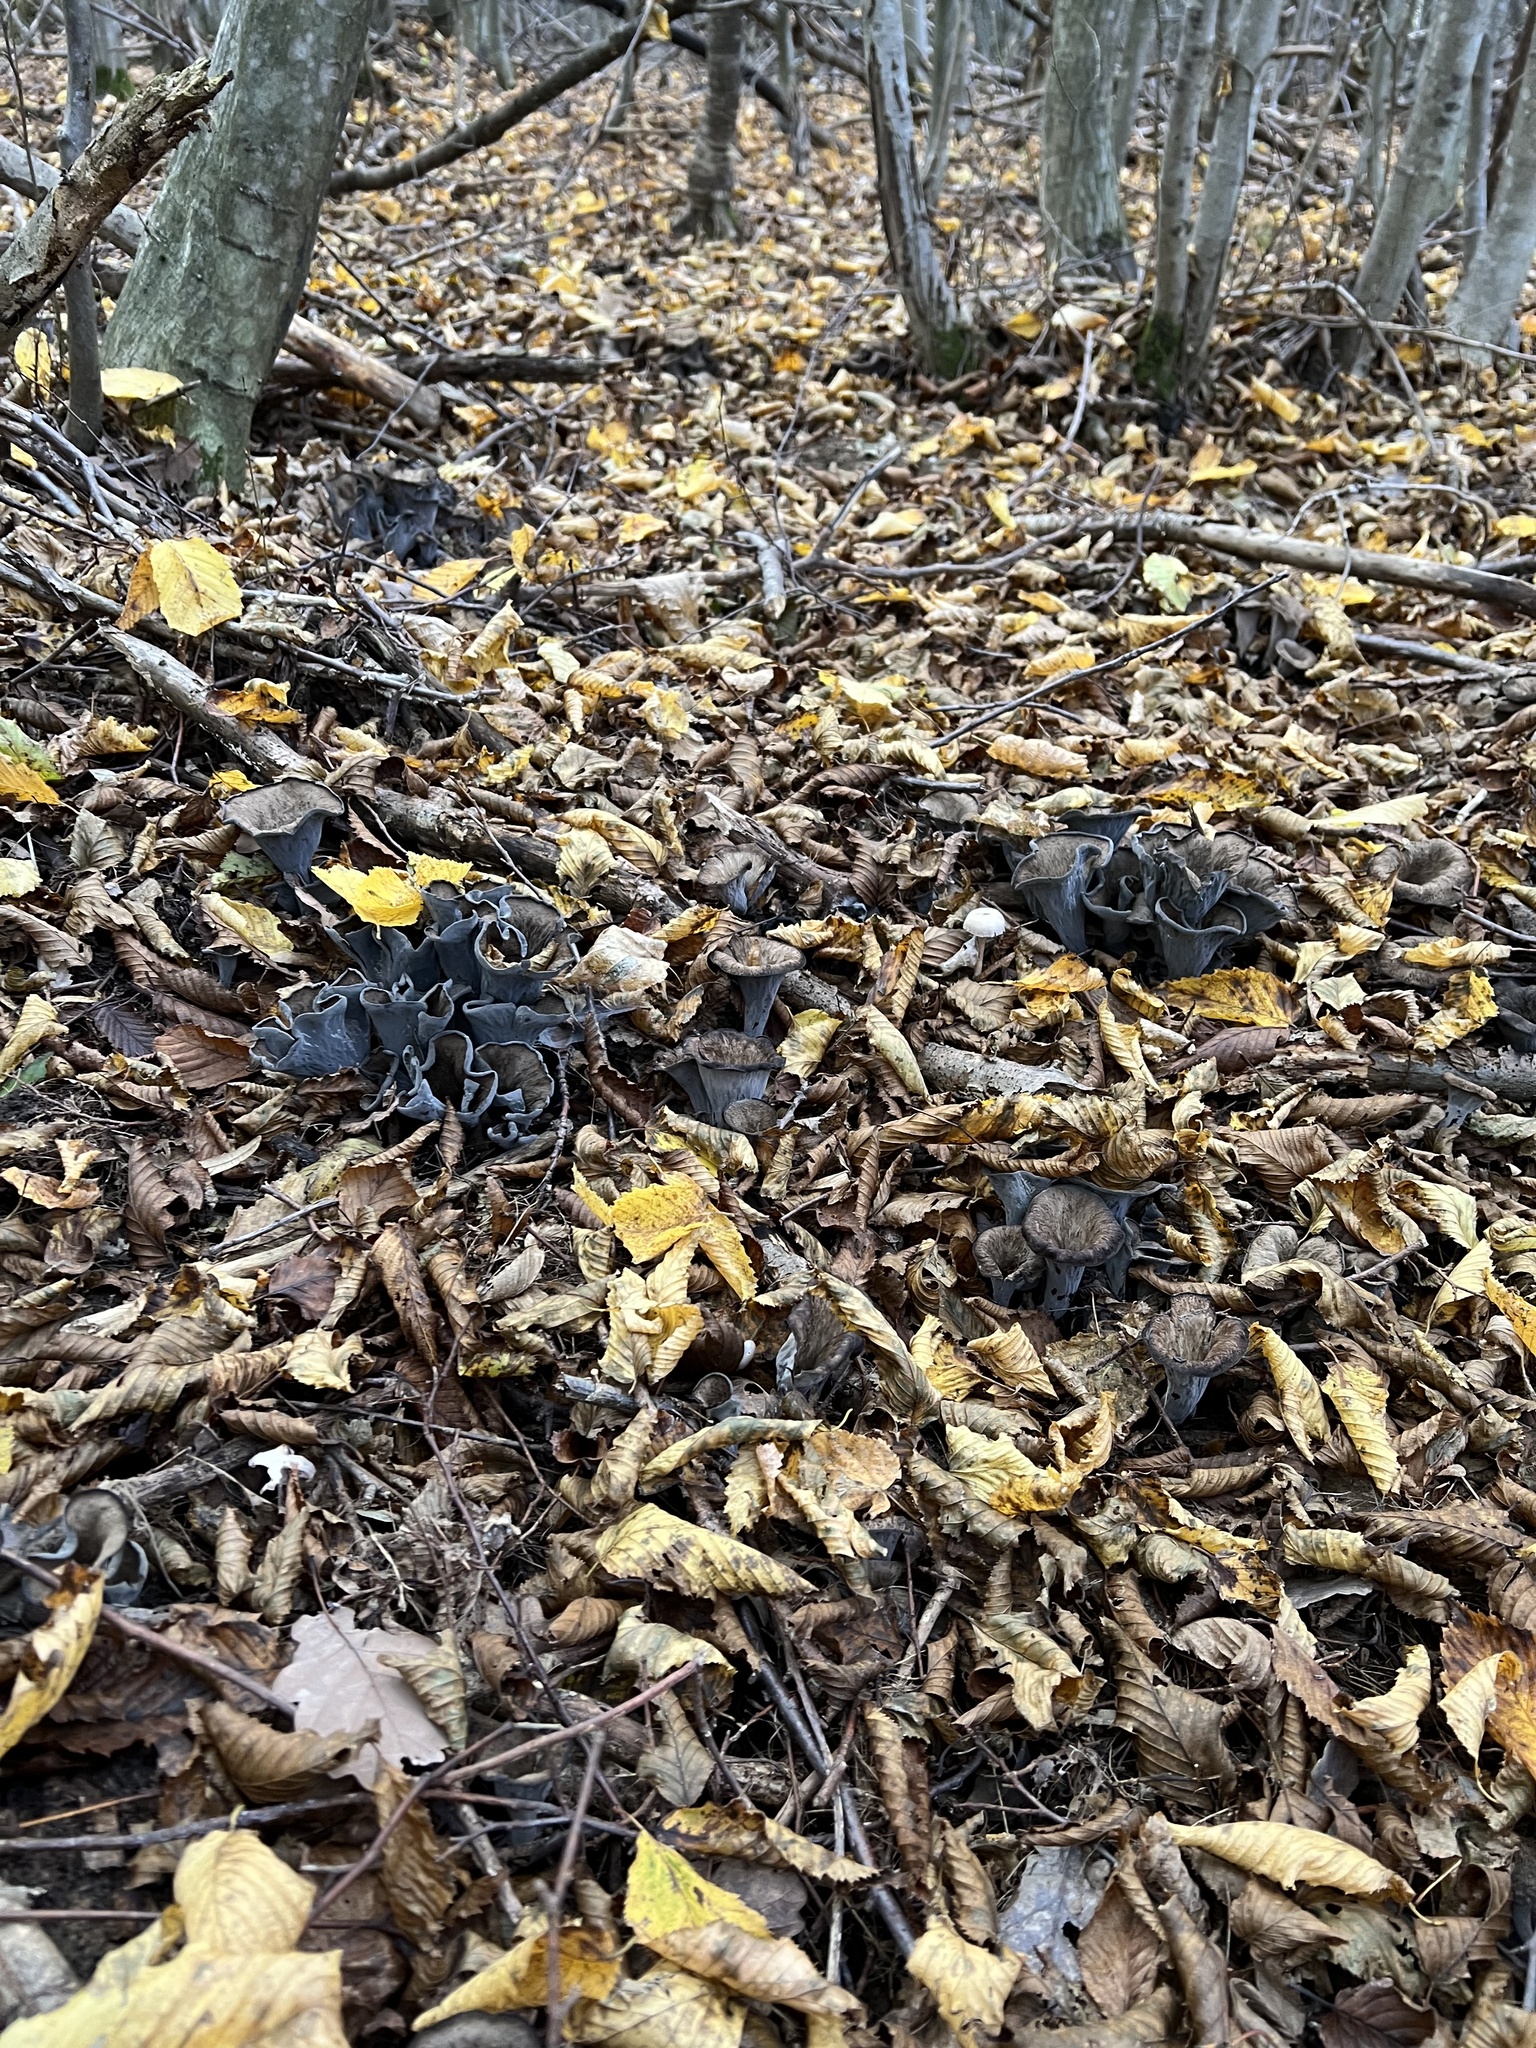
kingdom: Fungi
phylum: Basidiomycota
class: Agaricomycetes
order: Cantharellales
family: Hydnaceae
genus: Craterellus
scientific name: Craterellus cornucopioides
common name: Horn of plenty
